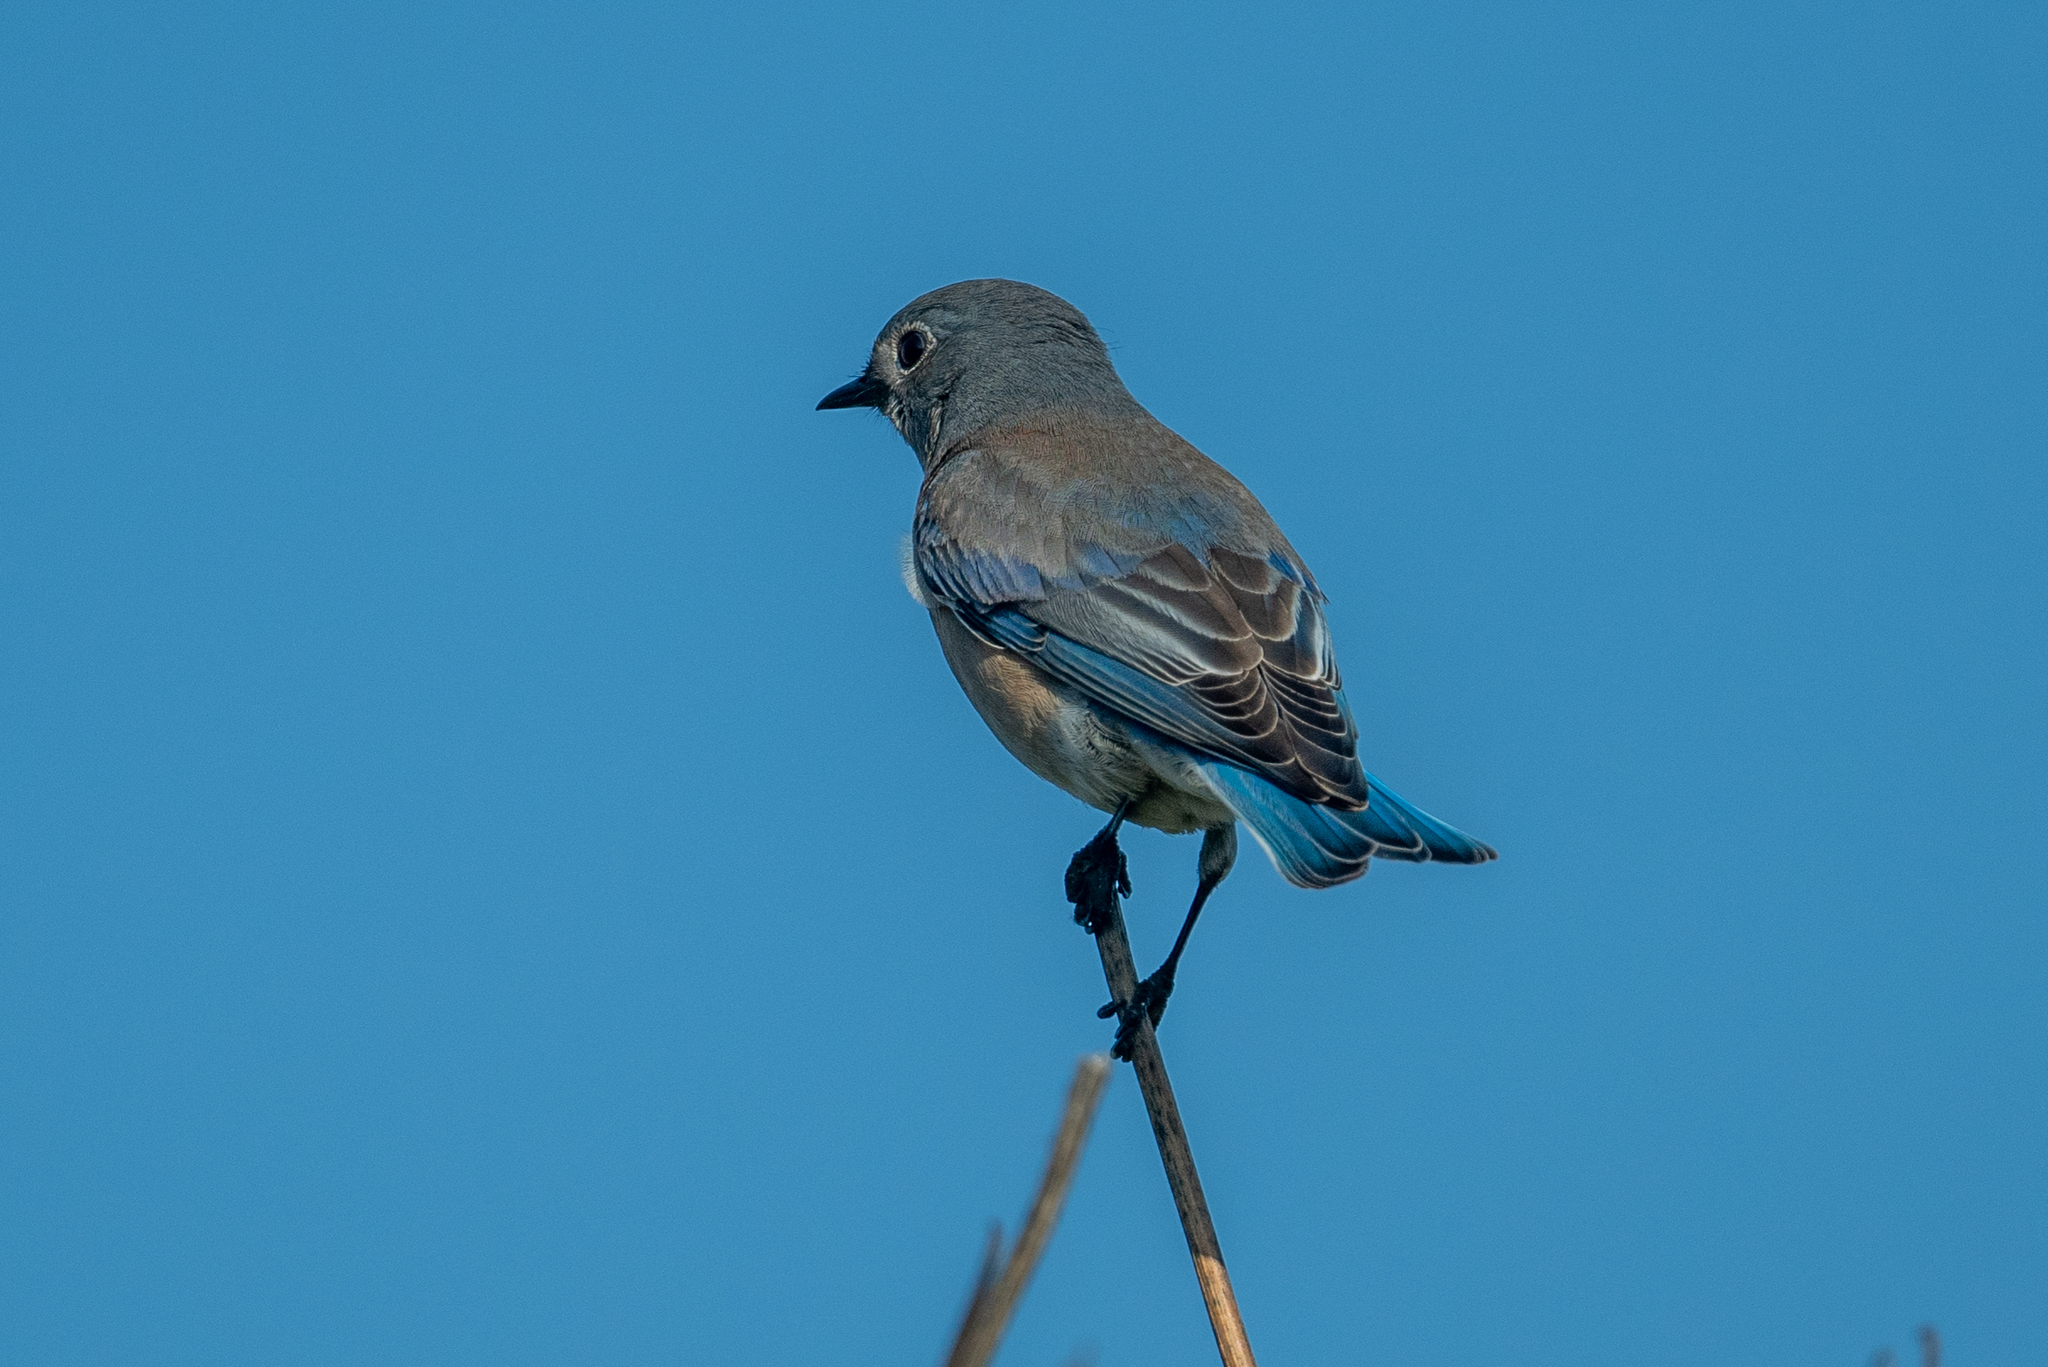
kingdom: Animalia
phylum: Chordata
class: Aves
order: Passeriformes
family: Turdidae
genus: Sialia
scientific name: Sialia mexicana
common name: Western bluebird
